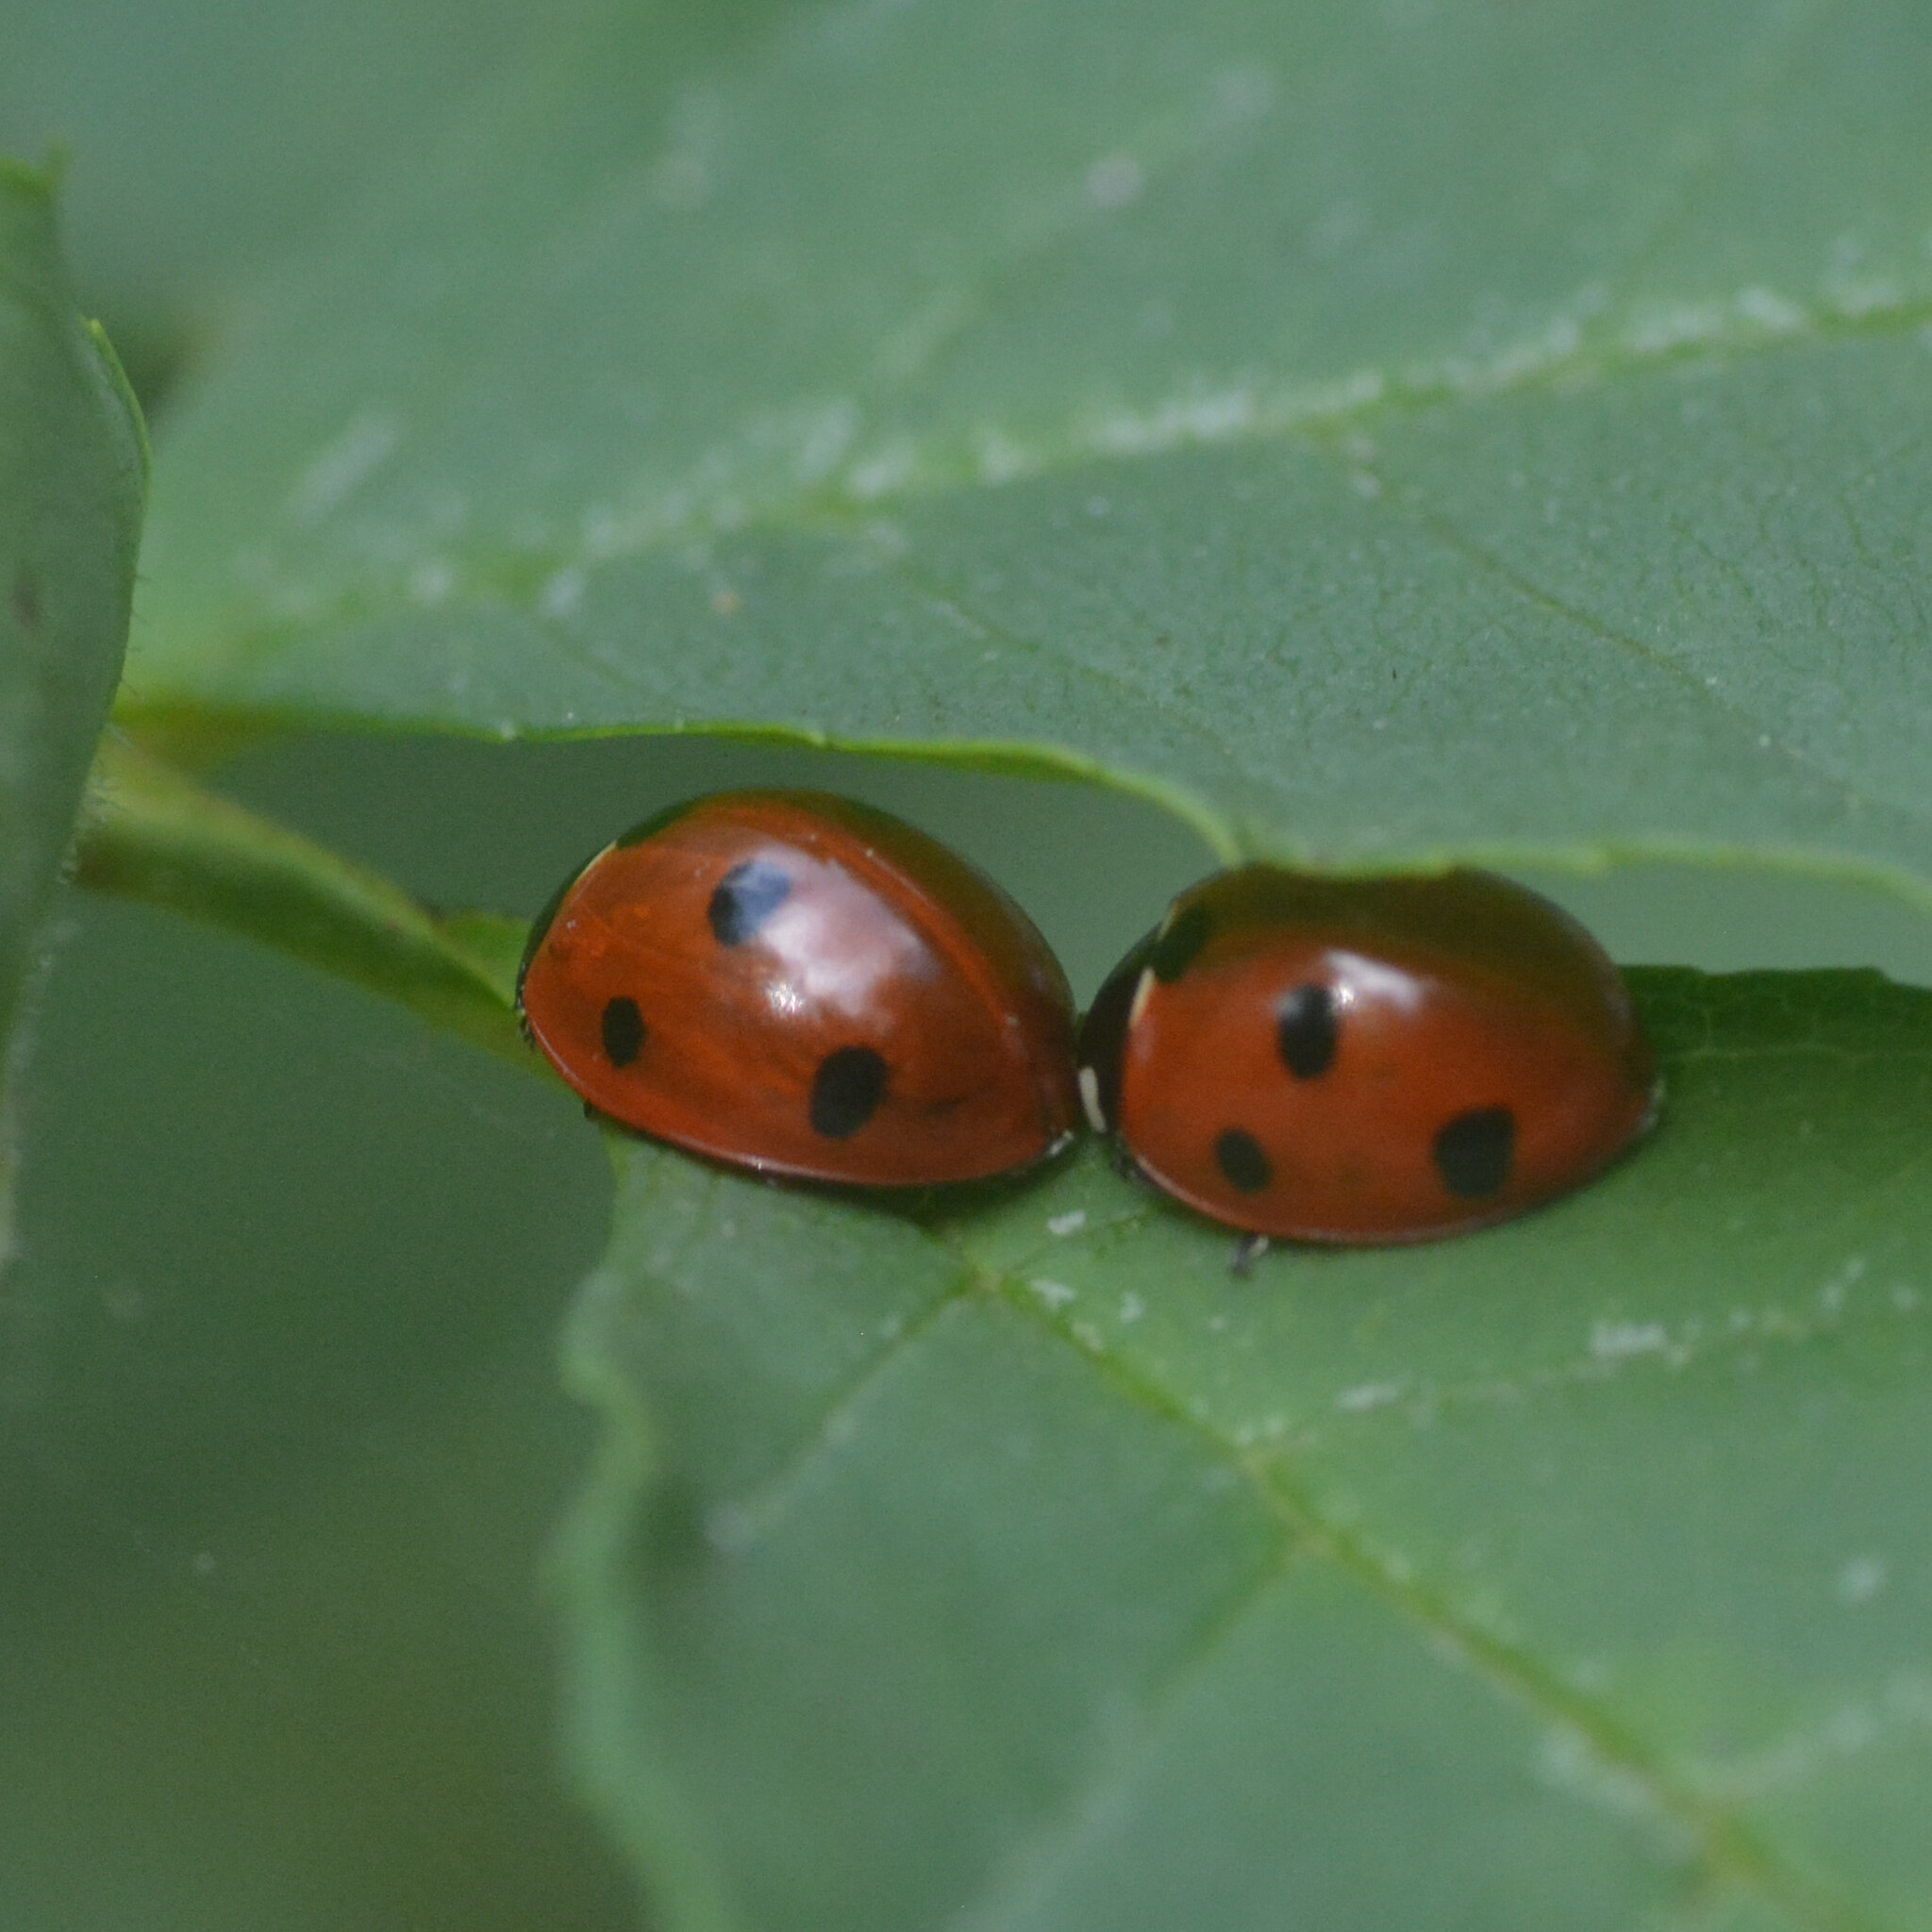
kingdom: Animalia
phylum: Arthropoda
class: Insecta
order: Coleoptera
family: Coccinellidae
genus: Coccinella
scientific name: Coccinella septempunctata
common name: Sevenspotted lady beetle
